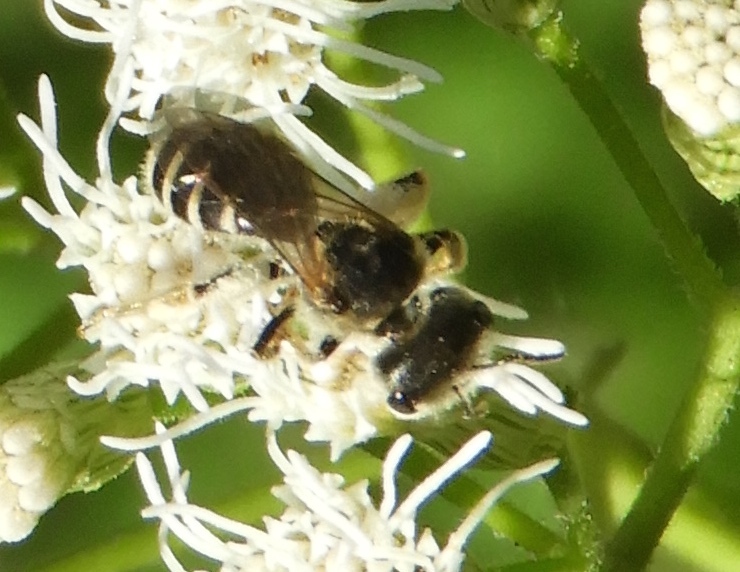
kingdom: Animalia
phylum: Arthropoda
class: Insecta
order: Hymenoptera
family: Halictidae
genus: Halictus
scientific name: Halictus ligatus
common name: Ligated furrow bee
